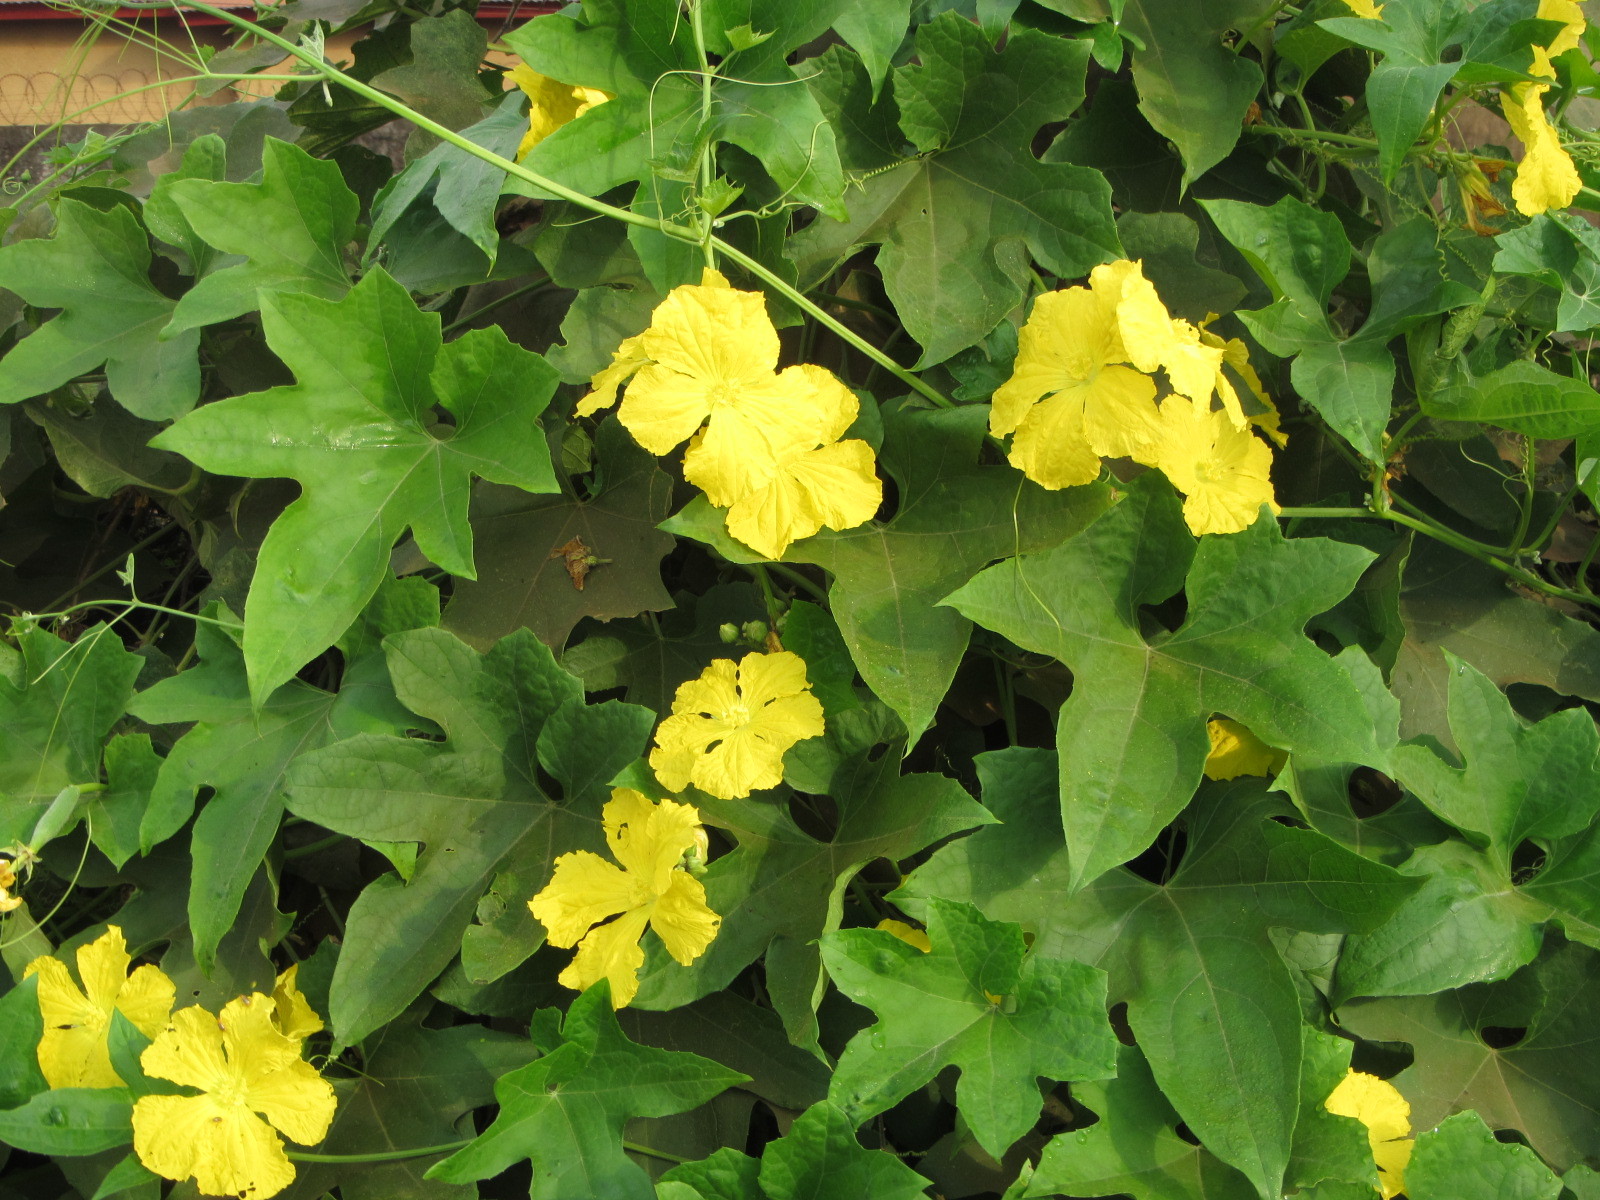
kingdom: Plantae
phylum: Tracheophyta
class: Magnoliopsida
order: Cucurbitales
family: Cucurbitaceae
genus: Luffa
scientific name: Luffa aegyptiaca
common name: Sponge gourd
